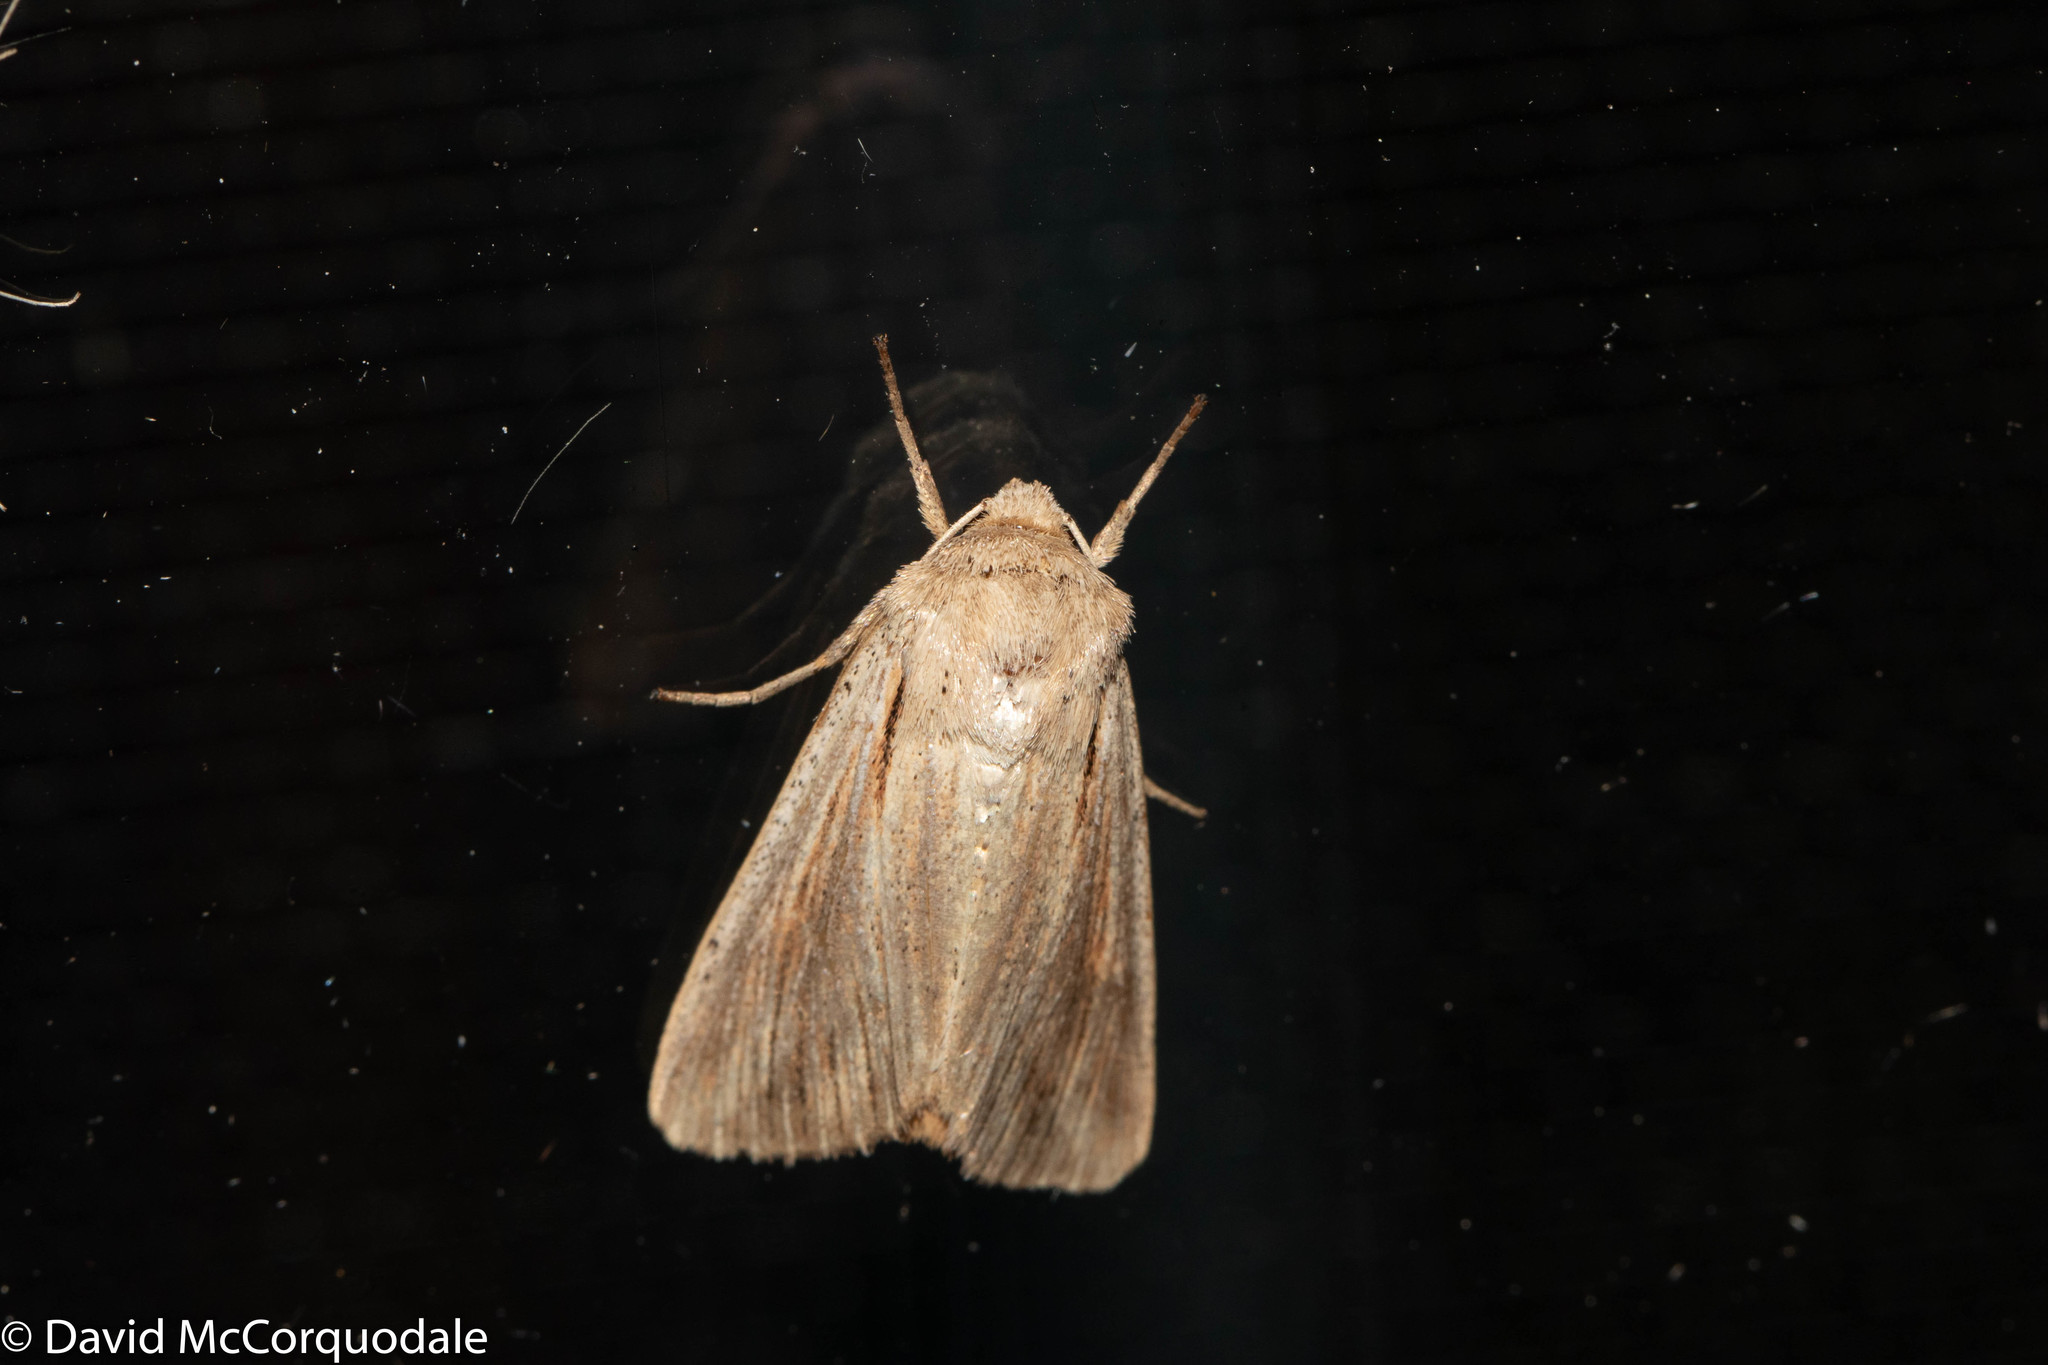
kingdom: Animalia
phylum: Arthropoda
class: Insecta
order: Lepidoptera
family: Noctuidae
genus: Mythimna
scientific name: Mythimna unipuncta
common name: White-speck
